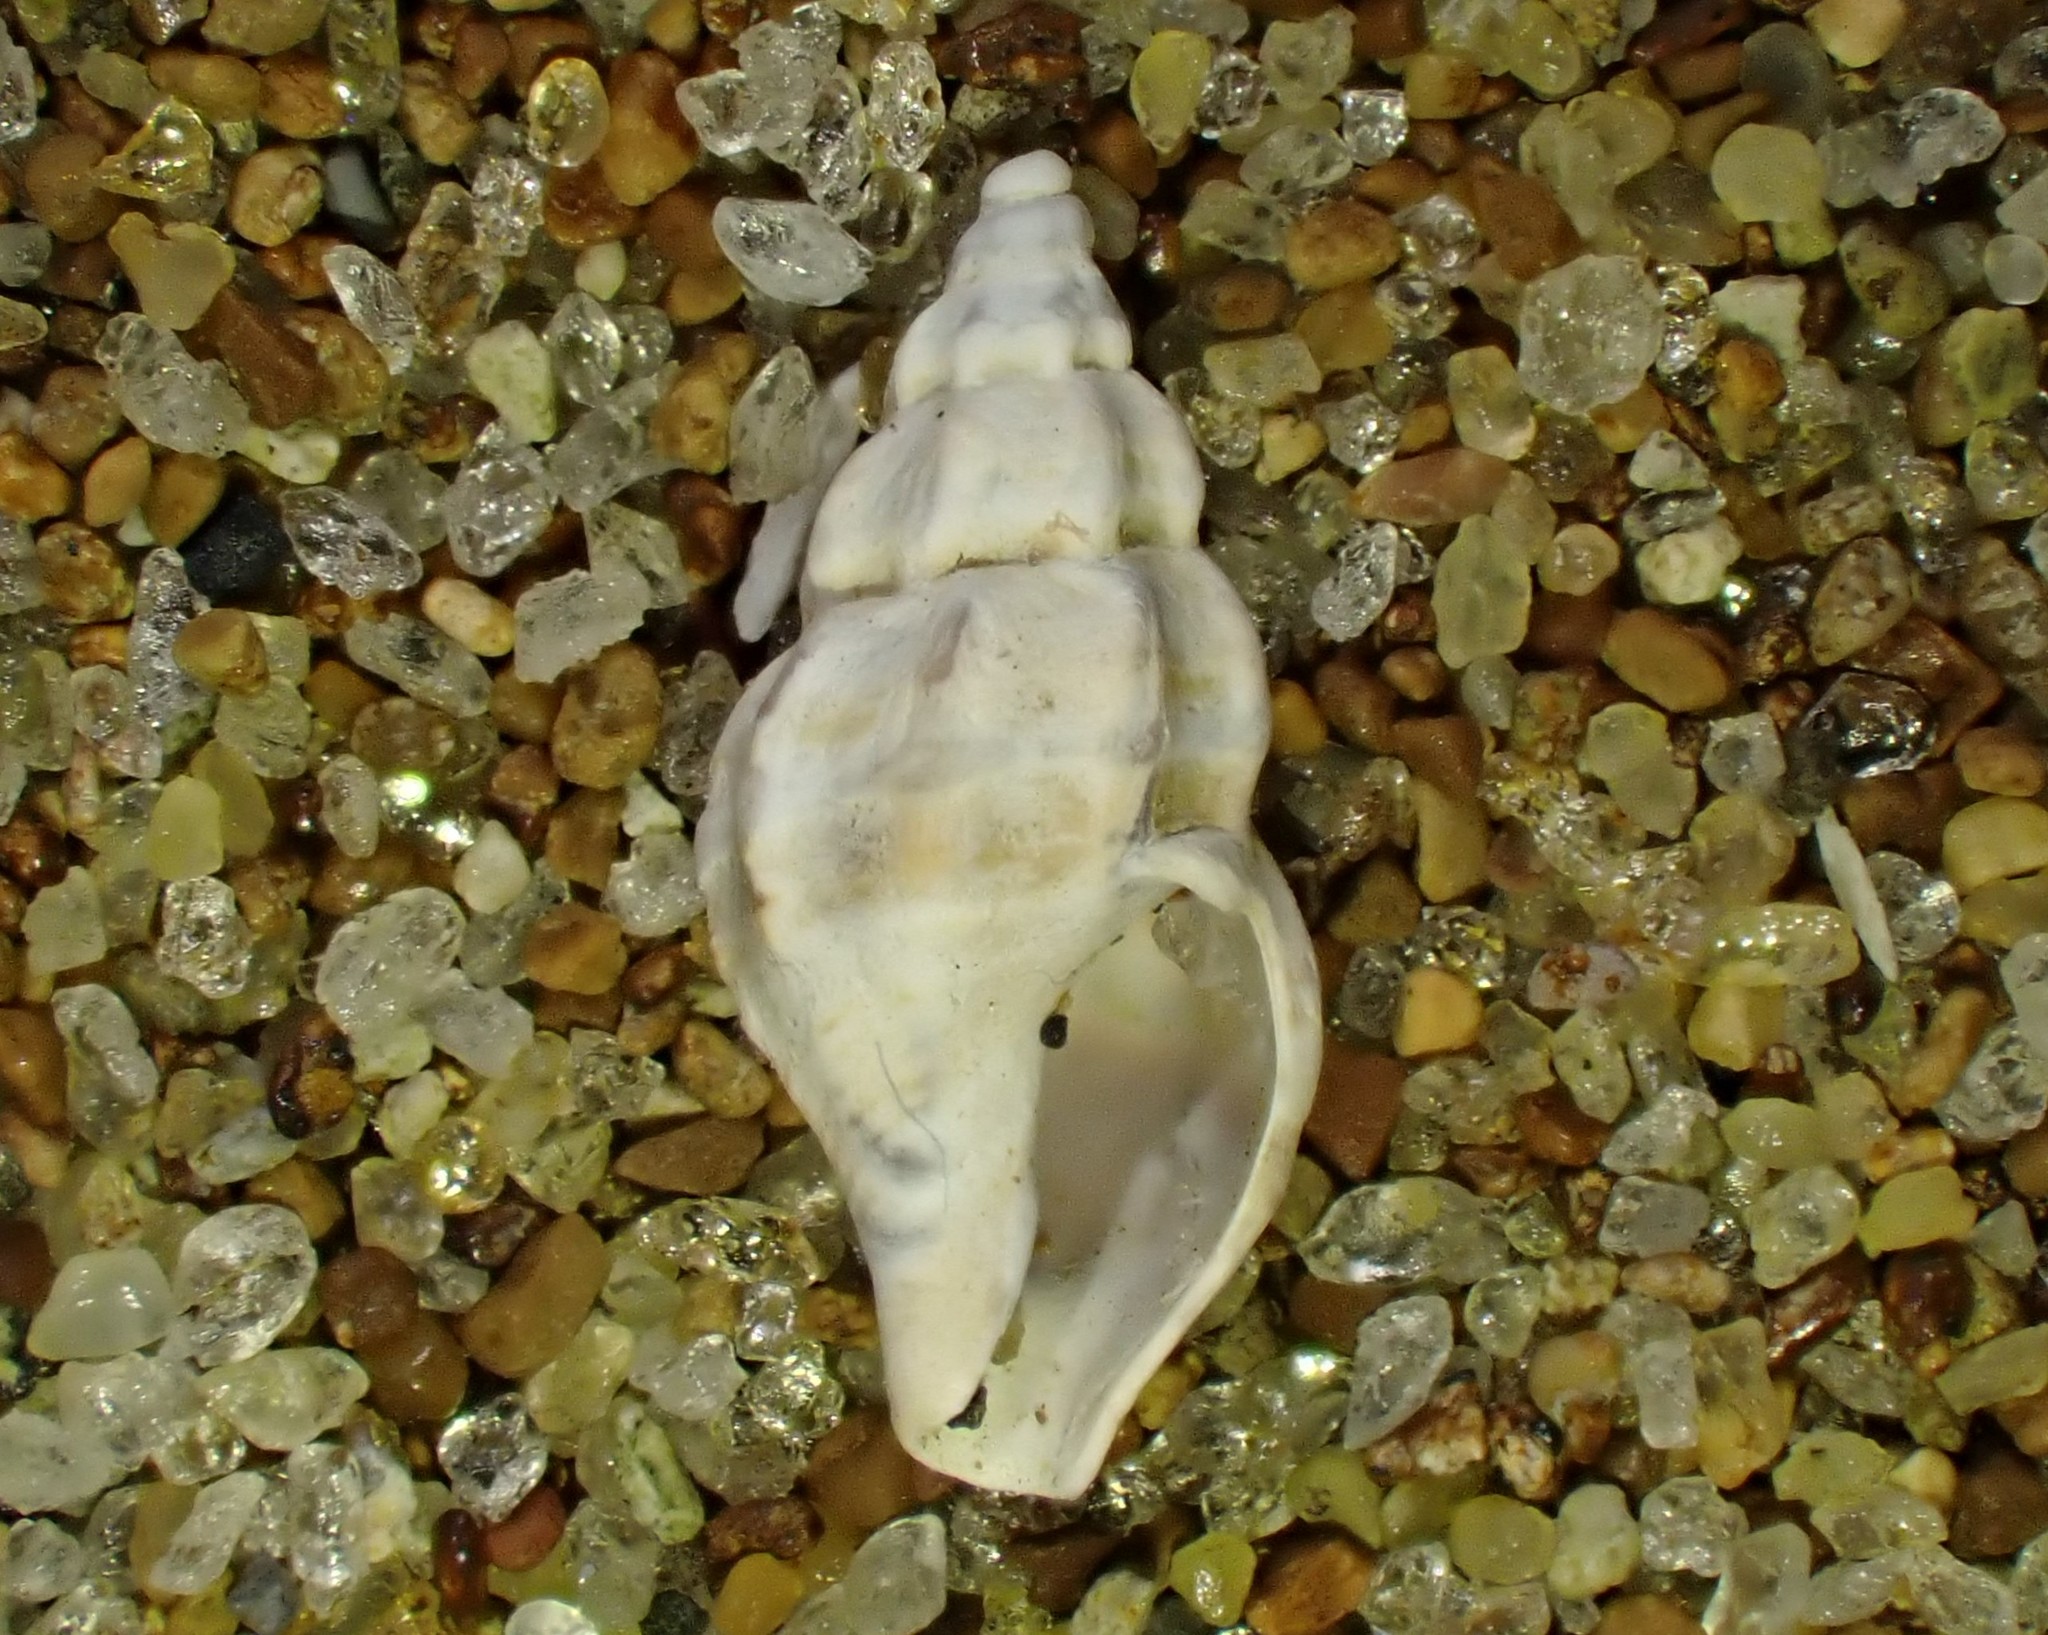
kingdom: Animalia
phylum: Mollusca
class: Gastropoda
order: Neogastropoda
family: Mangeliidae
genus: Neoguraleus
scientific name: Neoguraleus manukauensis
